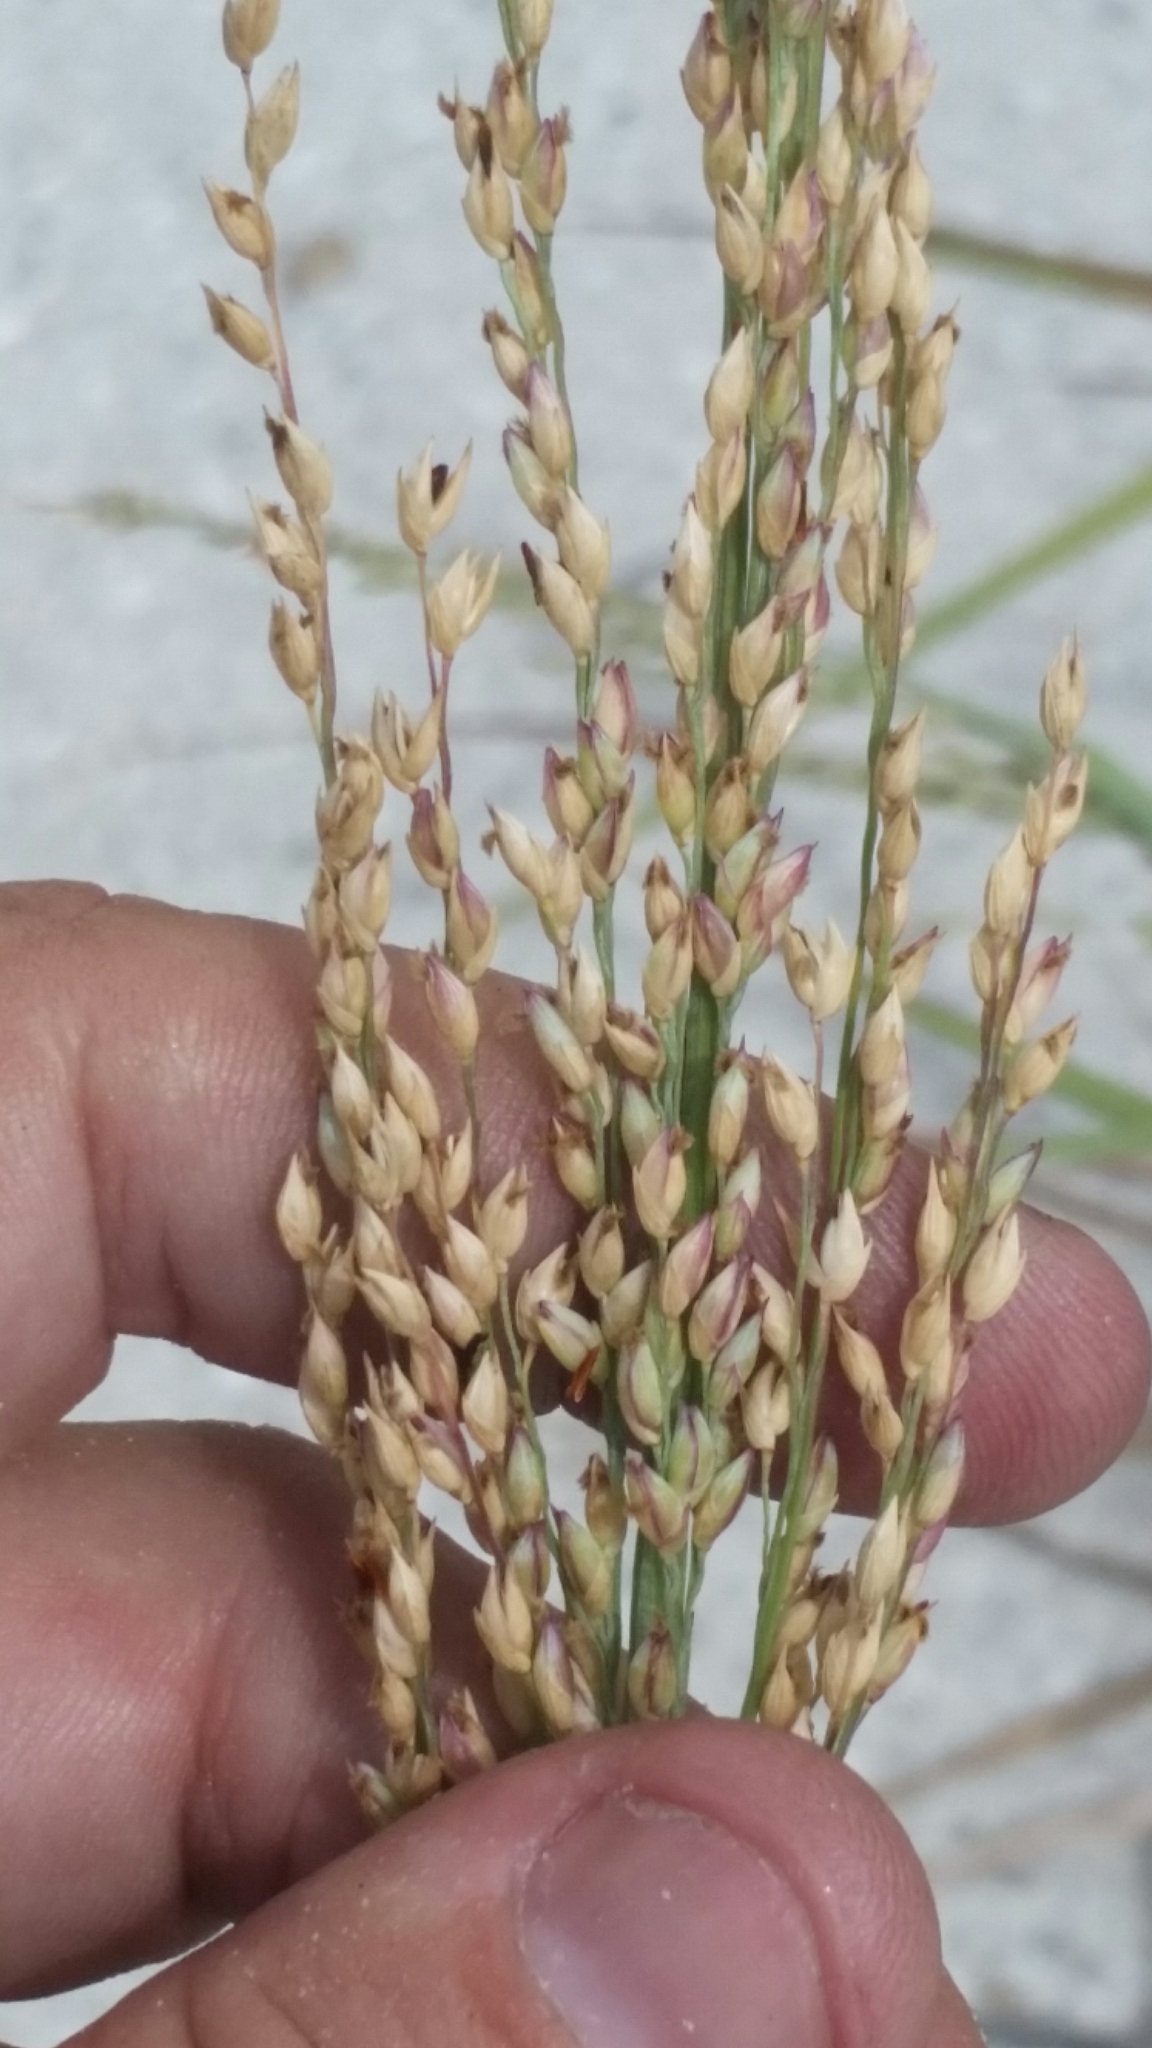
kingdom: Plantae
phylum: Tracheophyta
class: Liliopsida
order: Poales
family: Poaceae
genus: Panicum
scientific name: Panicum amarum
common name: Bitter panicum
